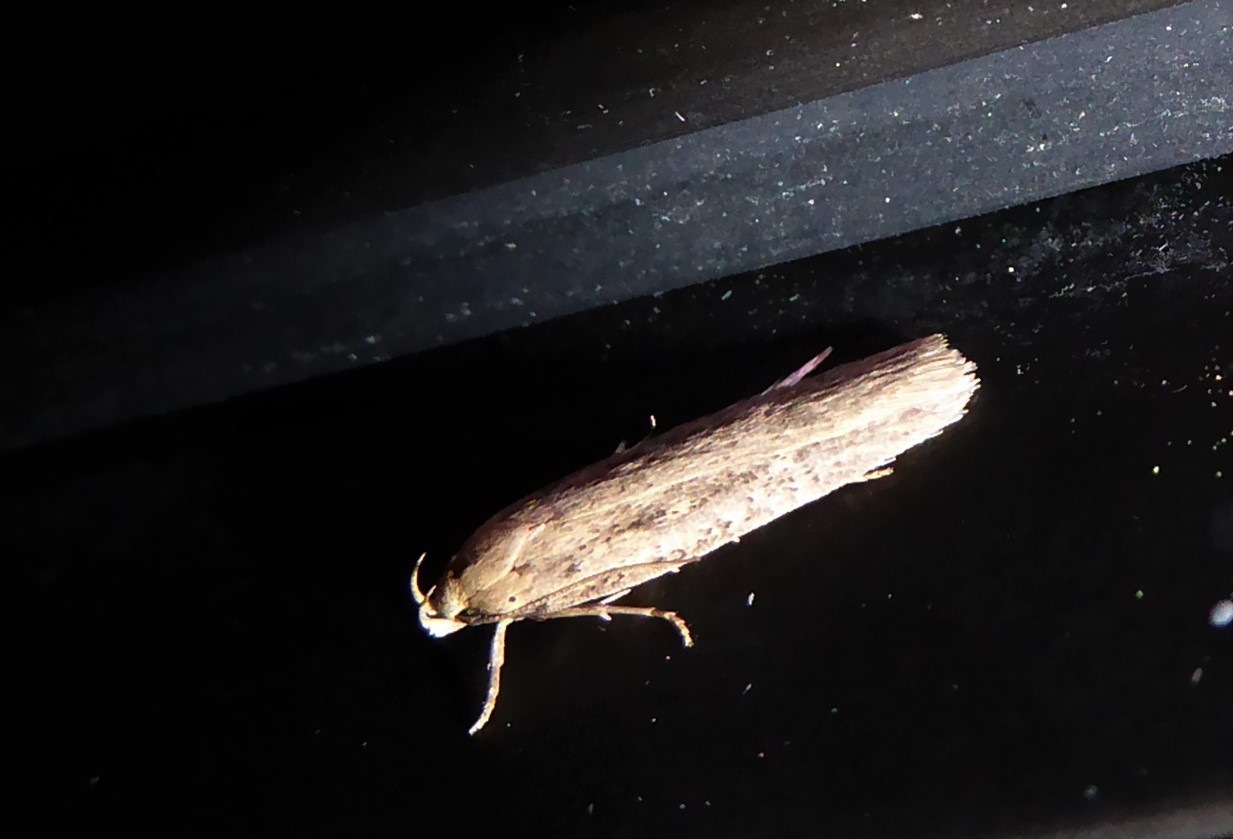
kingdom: Animalia
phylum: Arthropoda
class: Insecta
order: Lepidoptera
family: Gelechiidae
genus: Platyedra
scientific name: Platyedra subcinerea
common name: Moth
